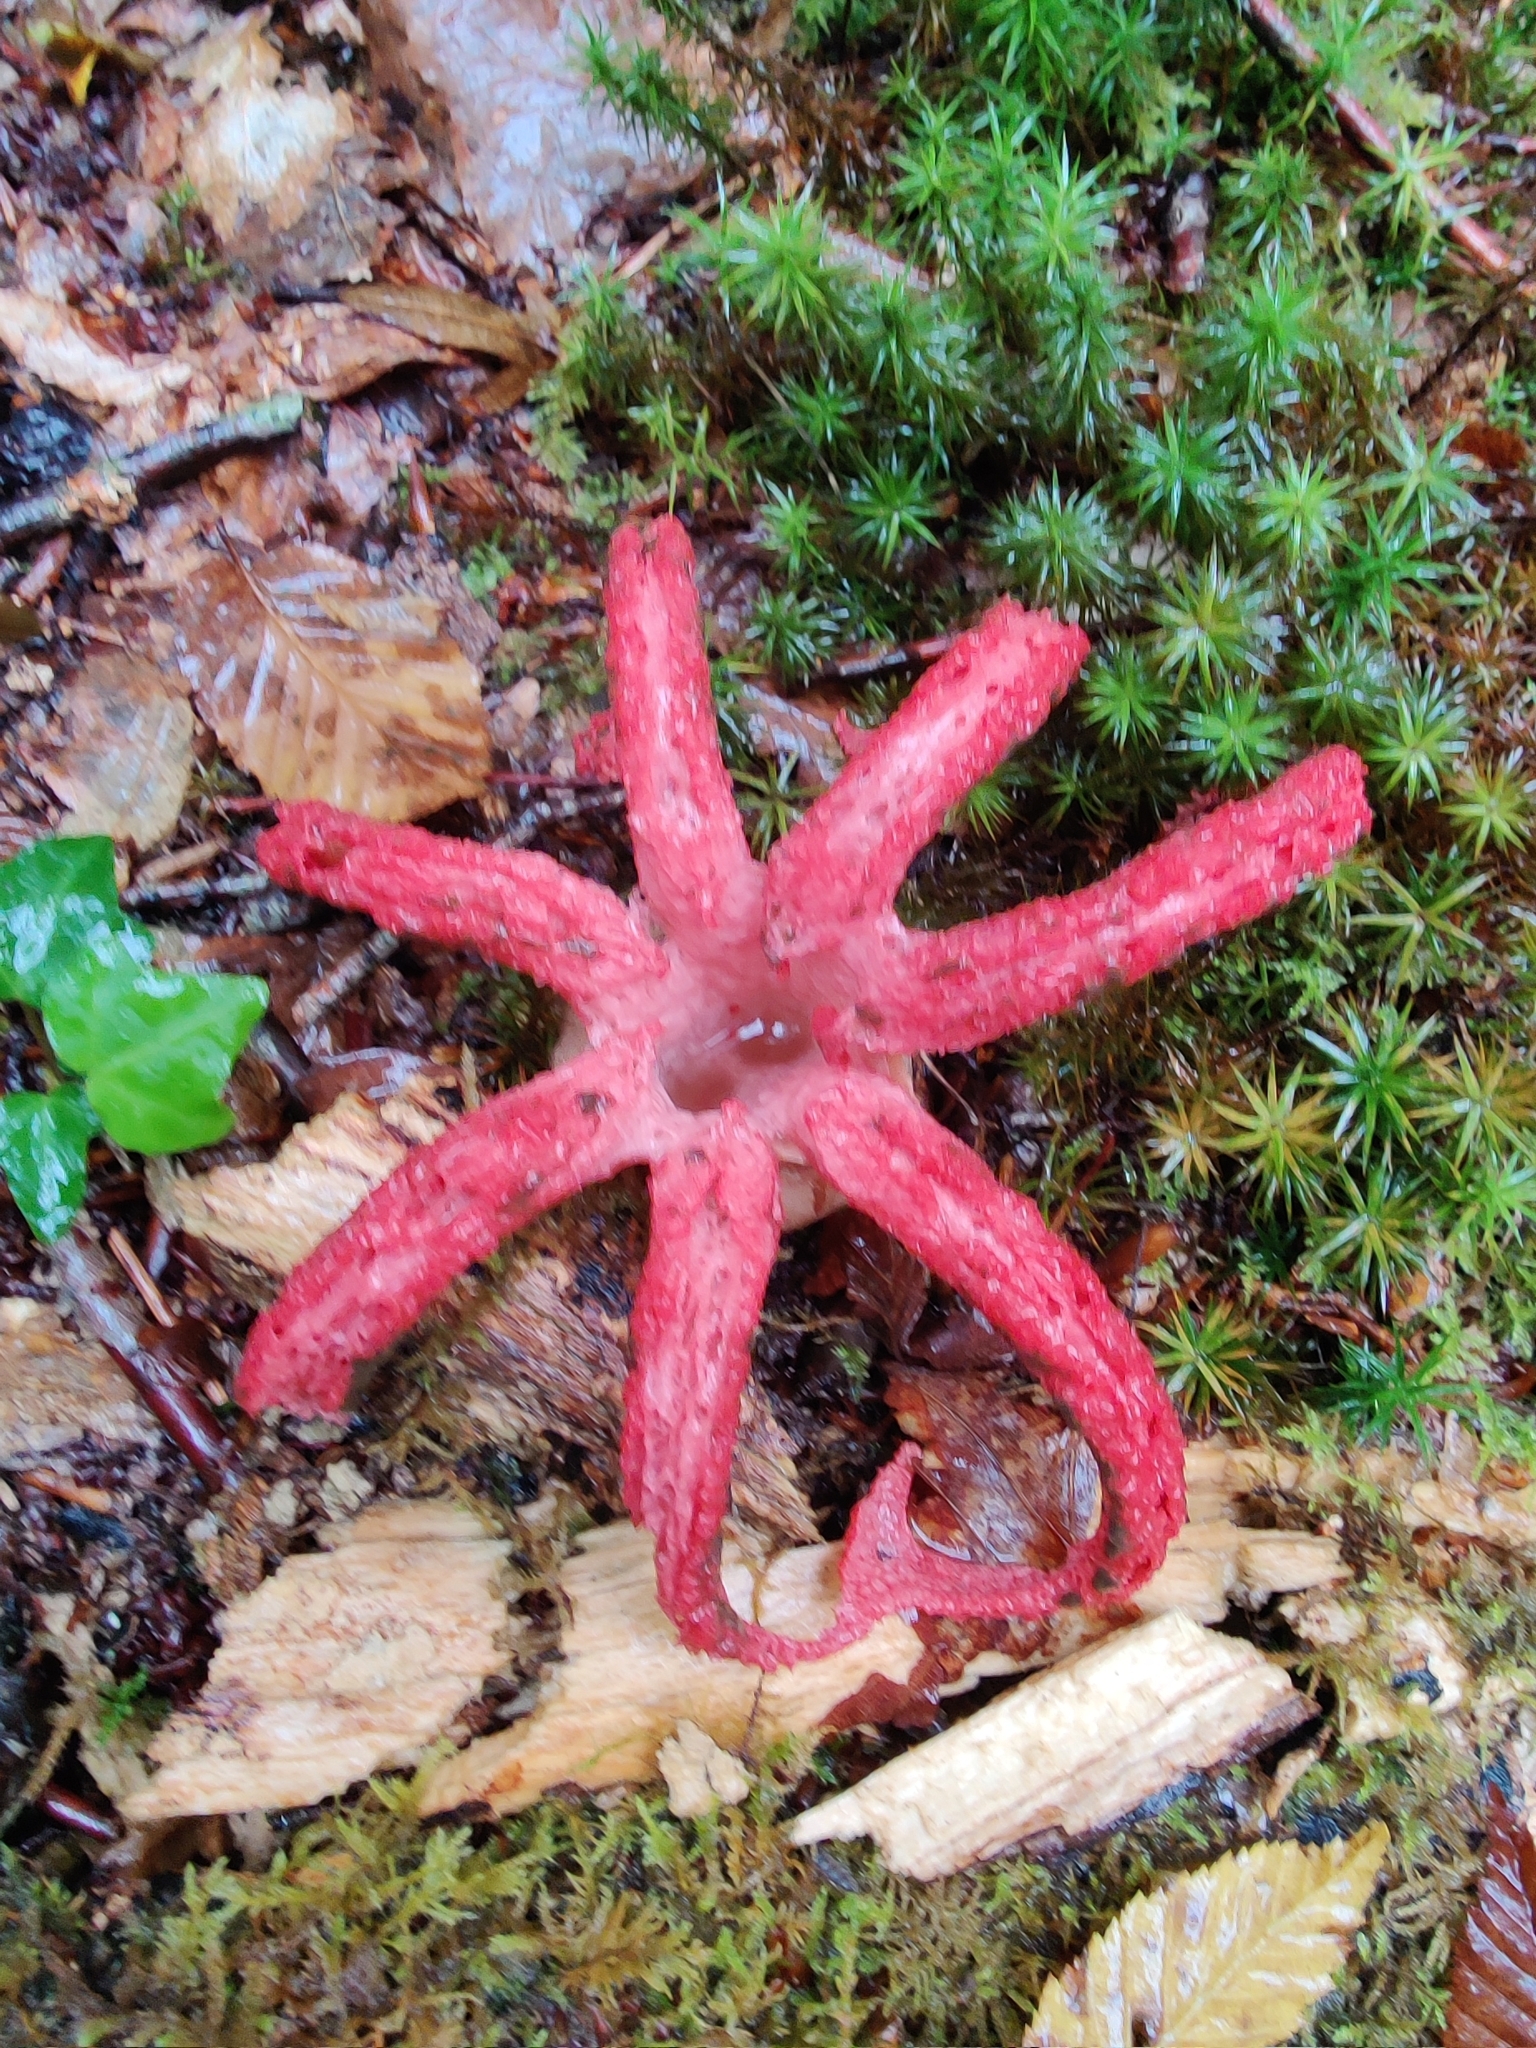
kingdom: Fungi
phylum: Basidiomycota
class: Agaricomycetes
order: Phallales
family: Phallaceae
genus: Clathrus
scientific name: Clathrus archeri
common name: Devil's fingers
